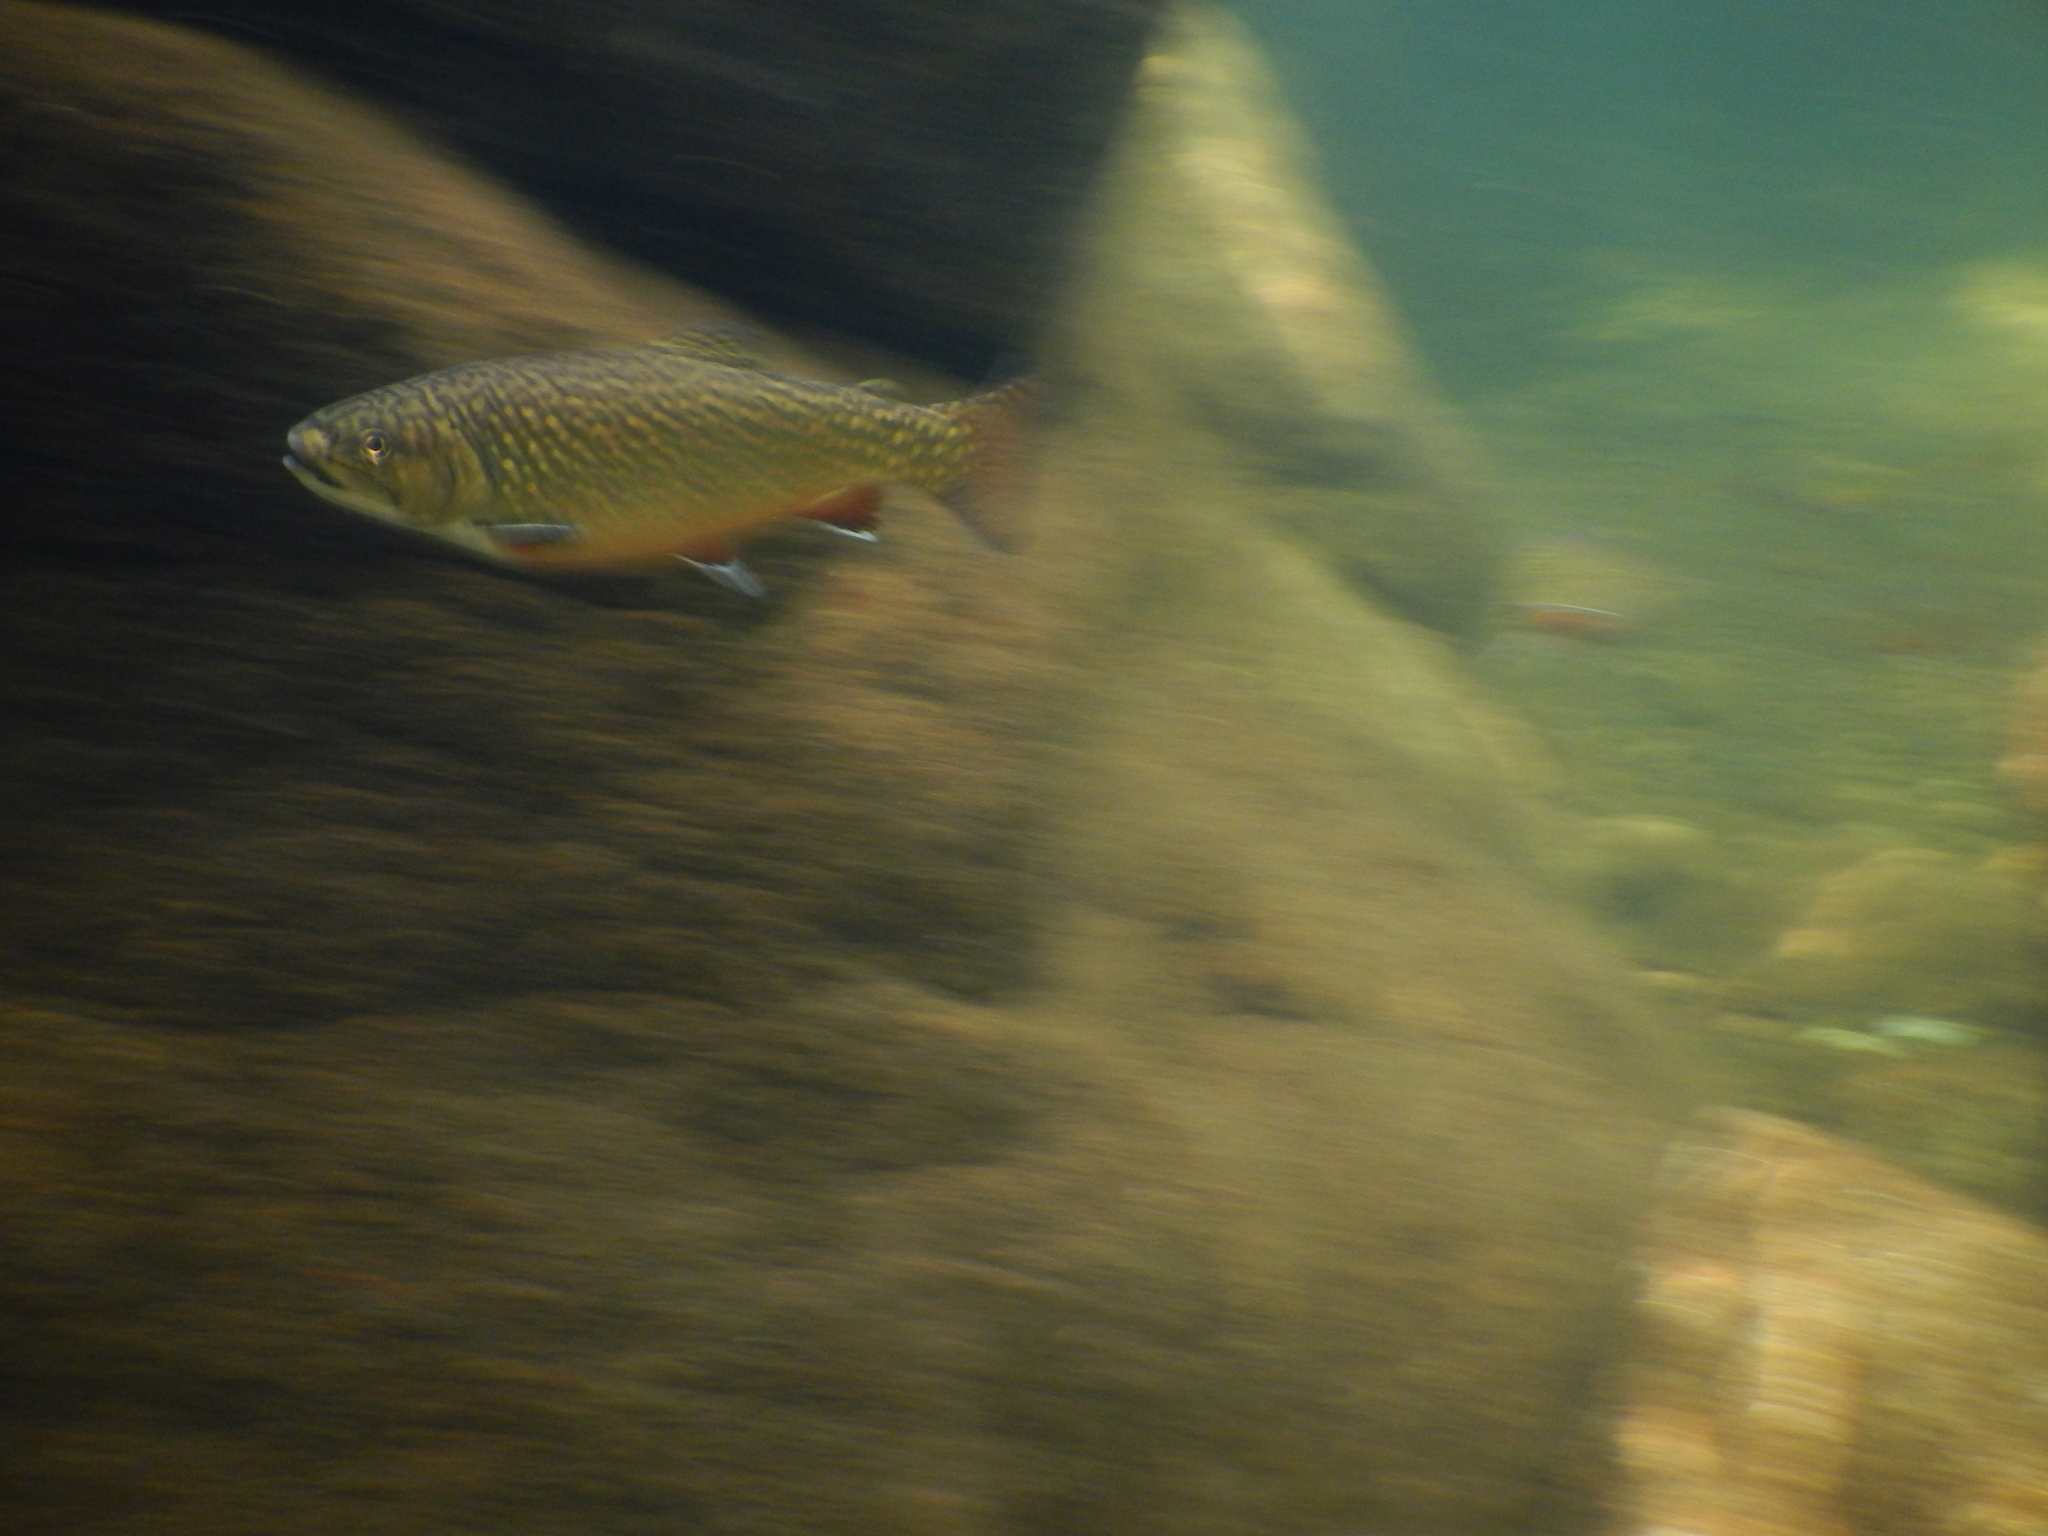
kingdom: Animalia
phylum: Chordata
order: Salmoniformes
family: Salmonidae
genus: Salvelinus
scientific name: Salvelinus fontinalis
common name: Brook trout
